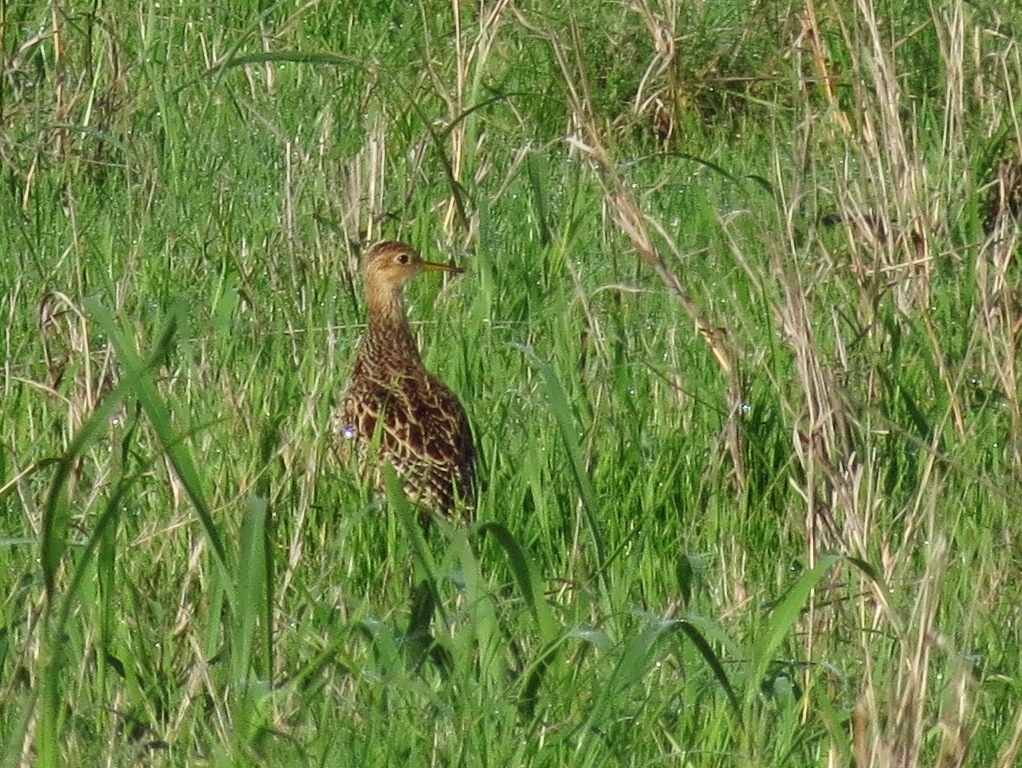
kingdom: Animalia
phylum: Chordata
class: Aves
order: Charadriiformes
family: Scolopacidae
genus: Bartramia
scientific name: Bartramia longicauda
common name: Upland sandpiper
